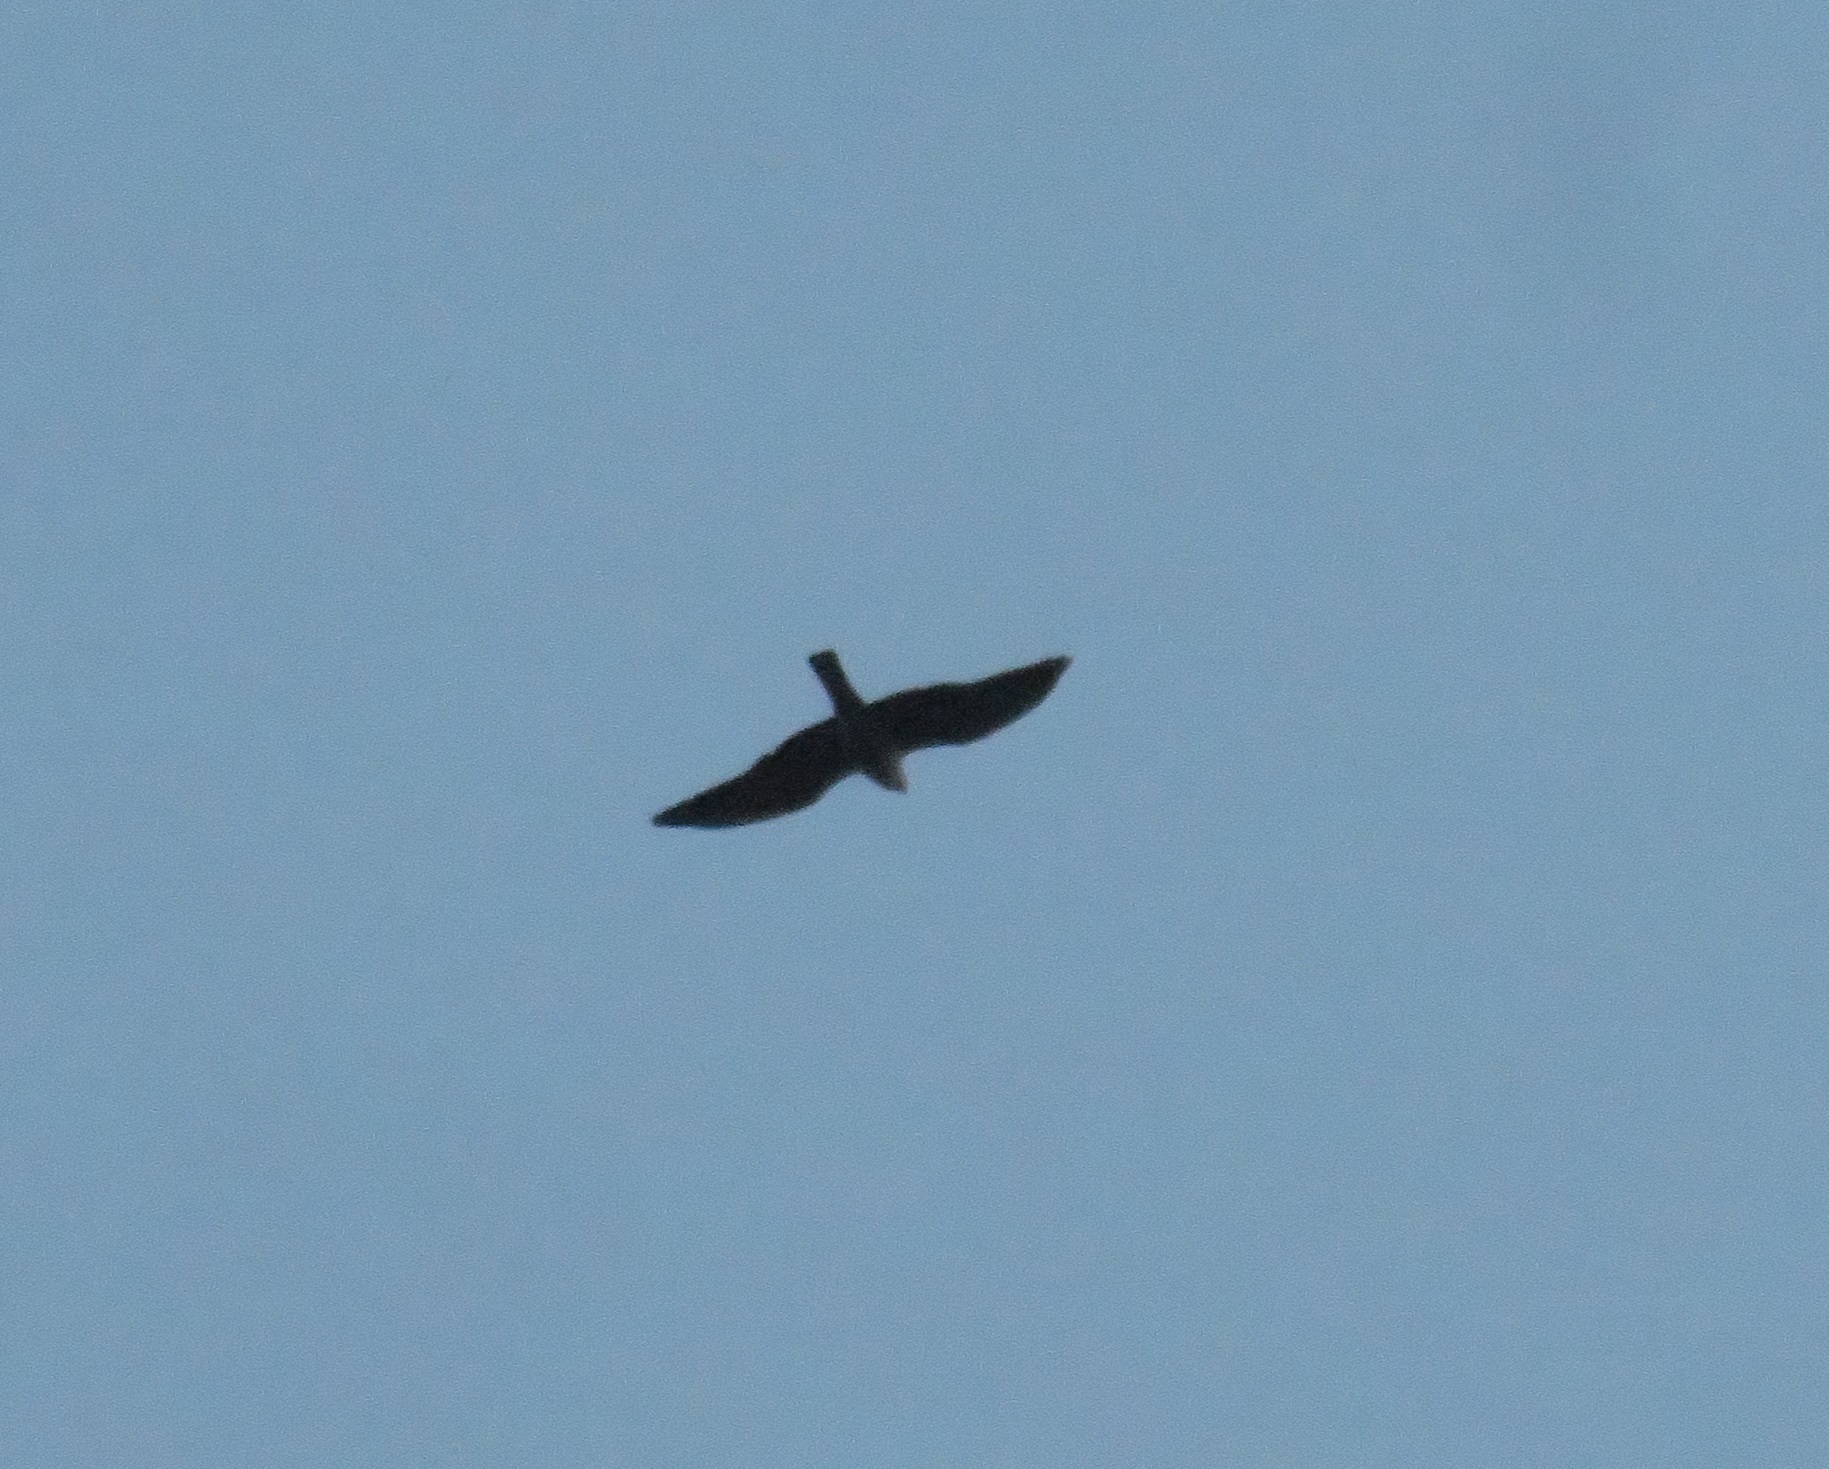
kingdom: Animalia
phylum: Chordata
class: Aves
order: Accipitriformes
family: Accipitridae
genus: Ictinia
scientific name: Ictinia mississippiensis
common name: Mississippi kite
